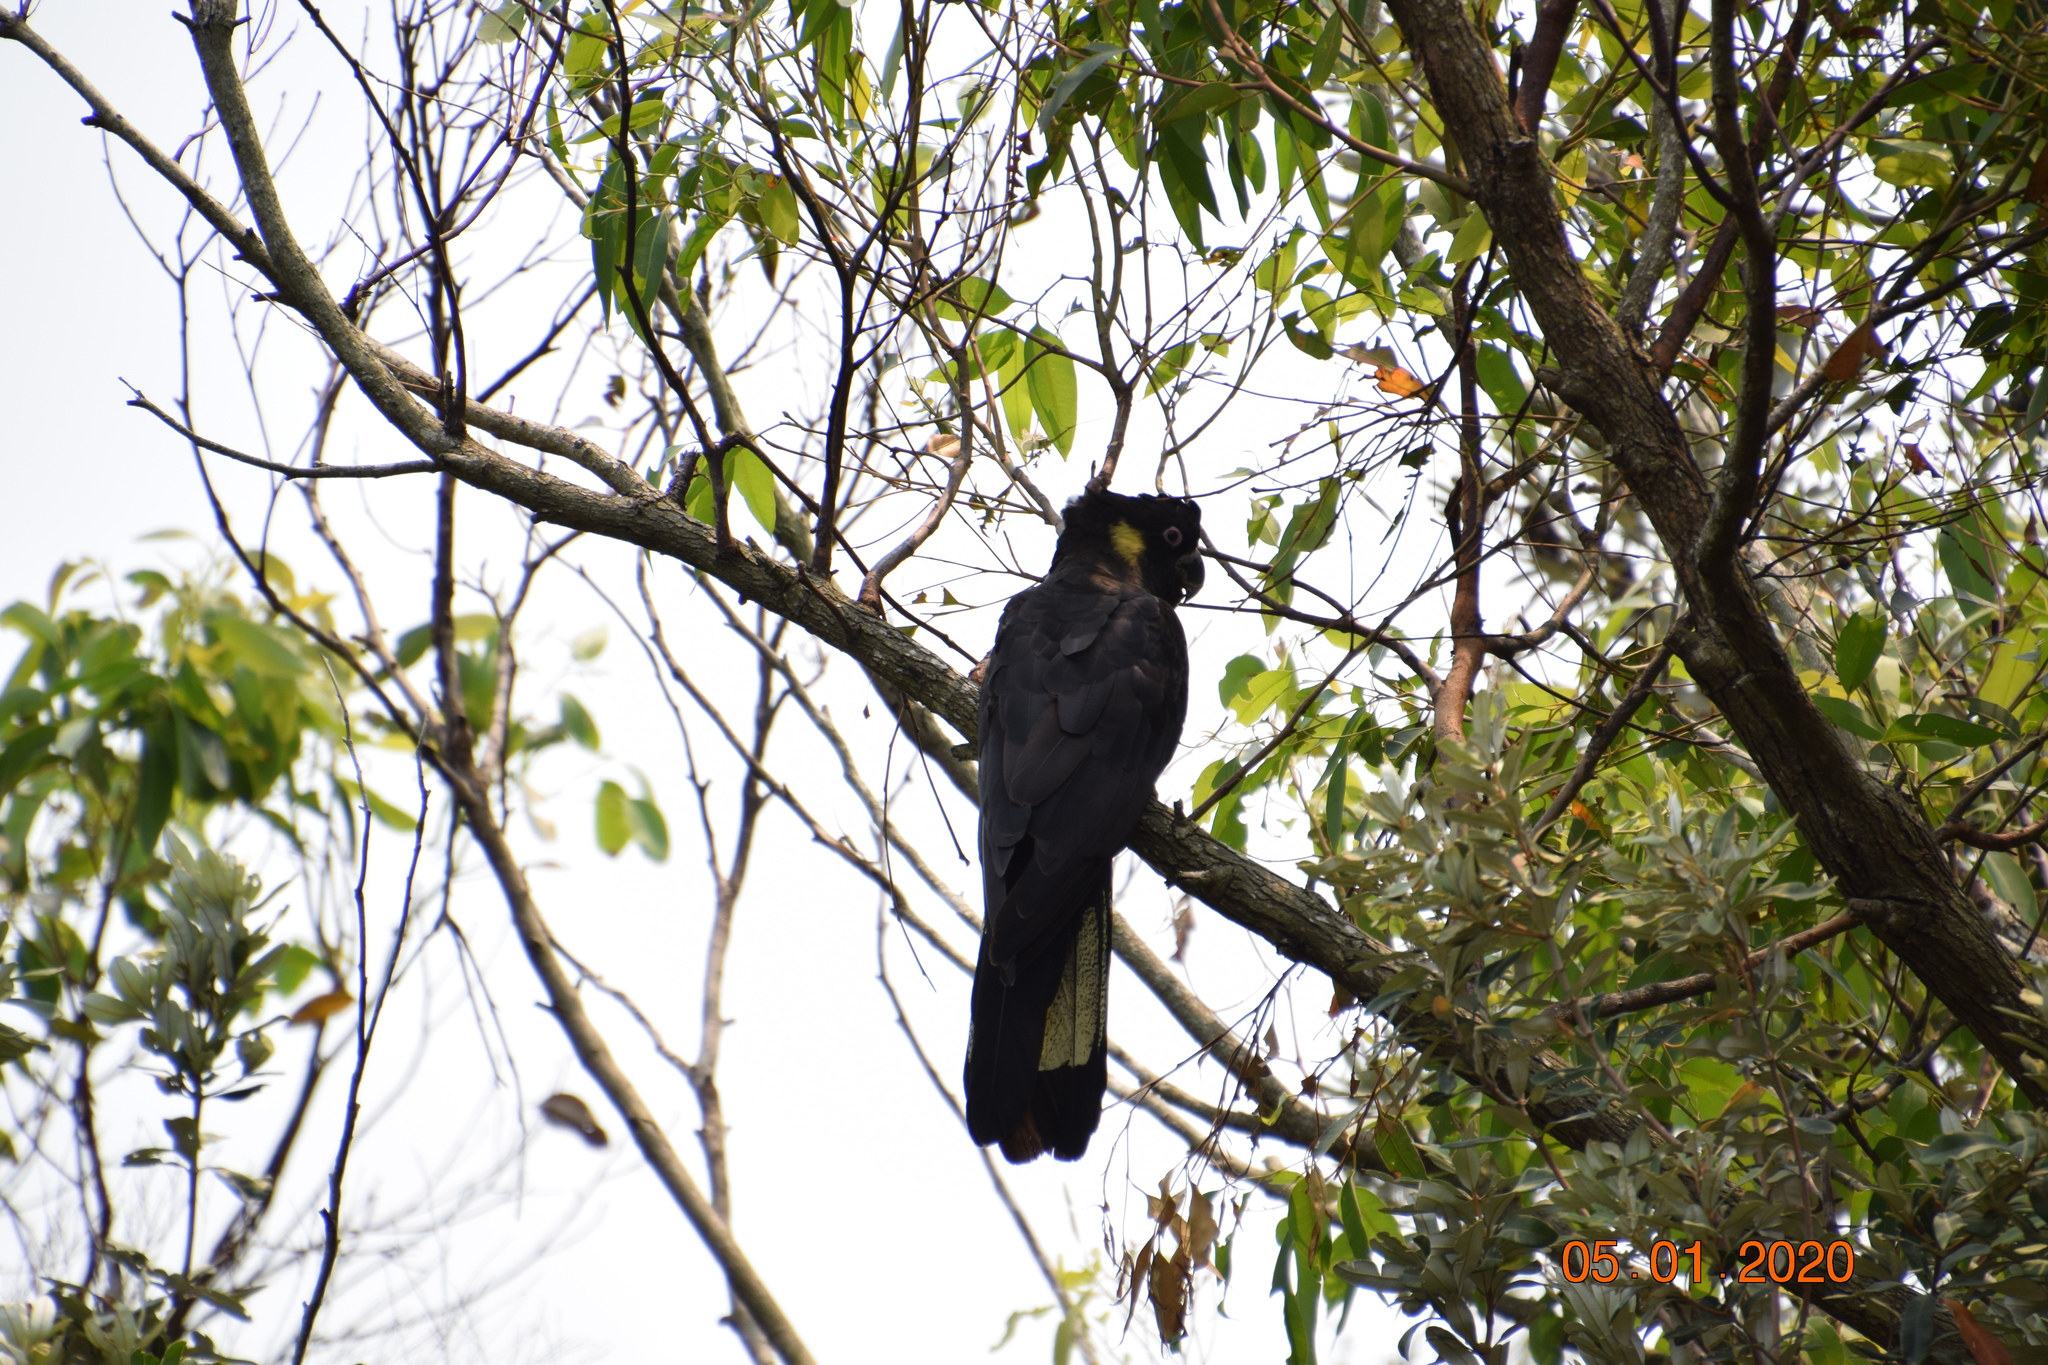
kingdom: Animalia
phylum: Chordata
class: Aves
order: Psittaciformes
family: Cacatuidae
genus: Zanda
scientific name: Zanda funerea
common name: Yellow-tailed black-cockatoo
